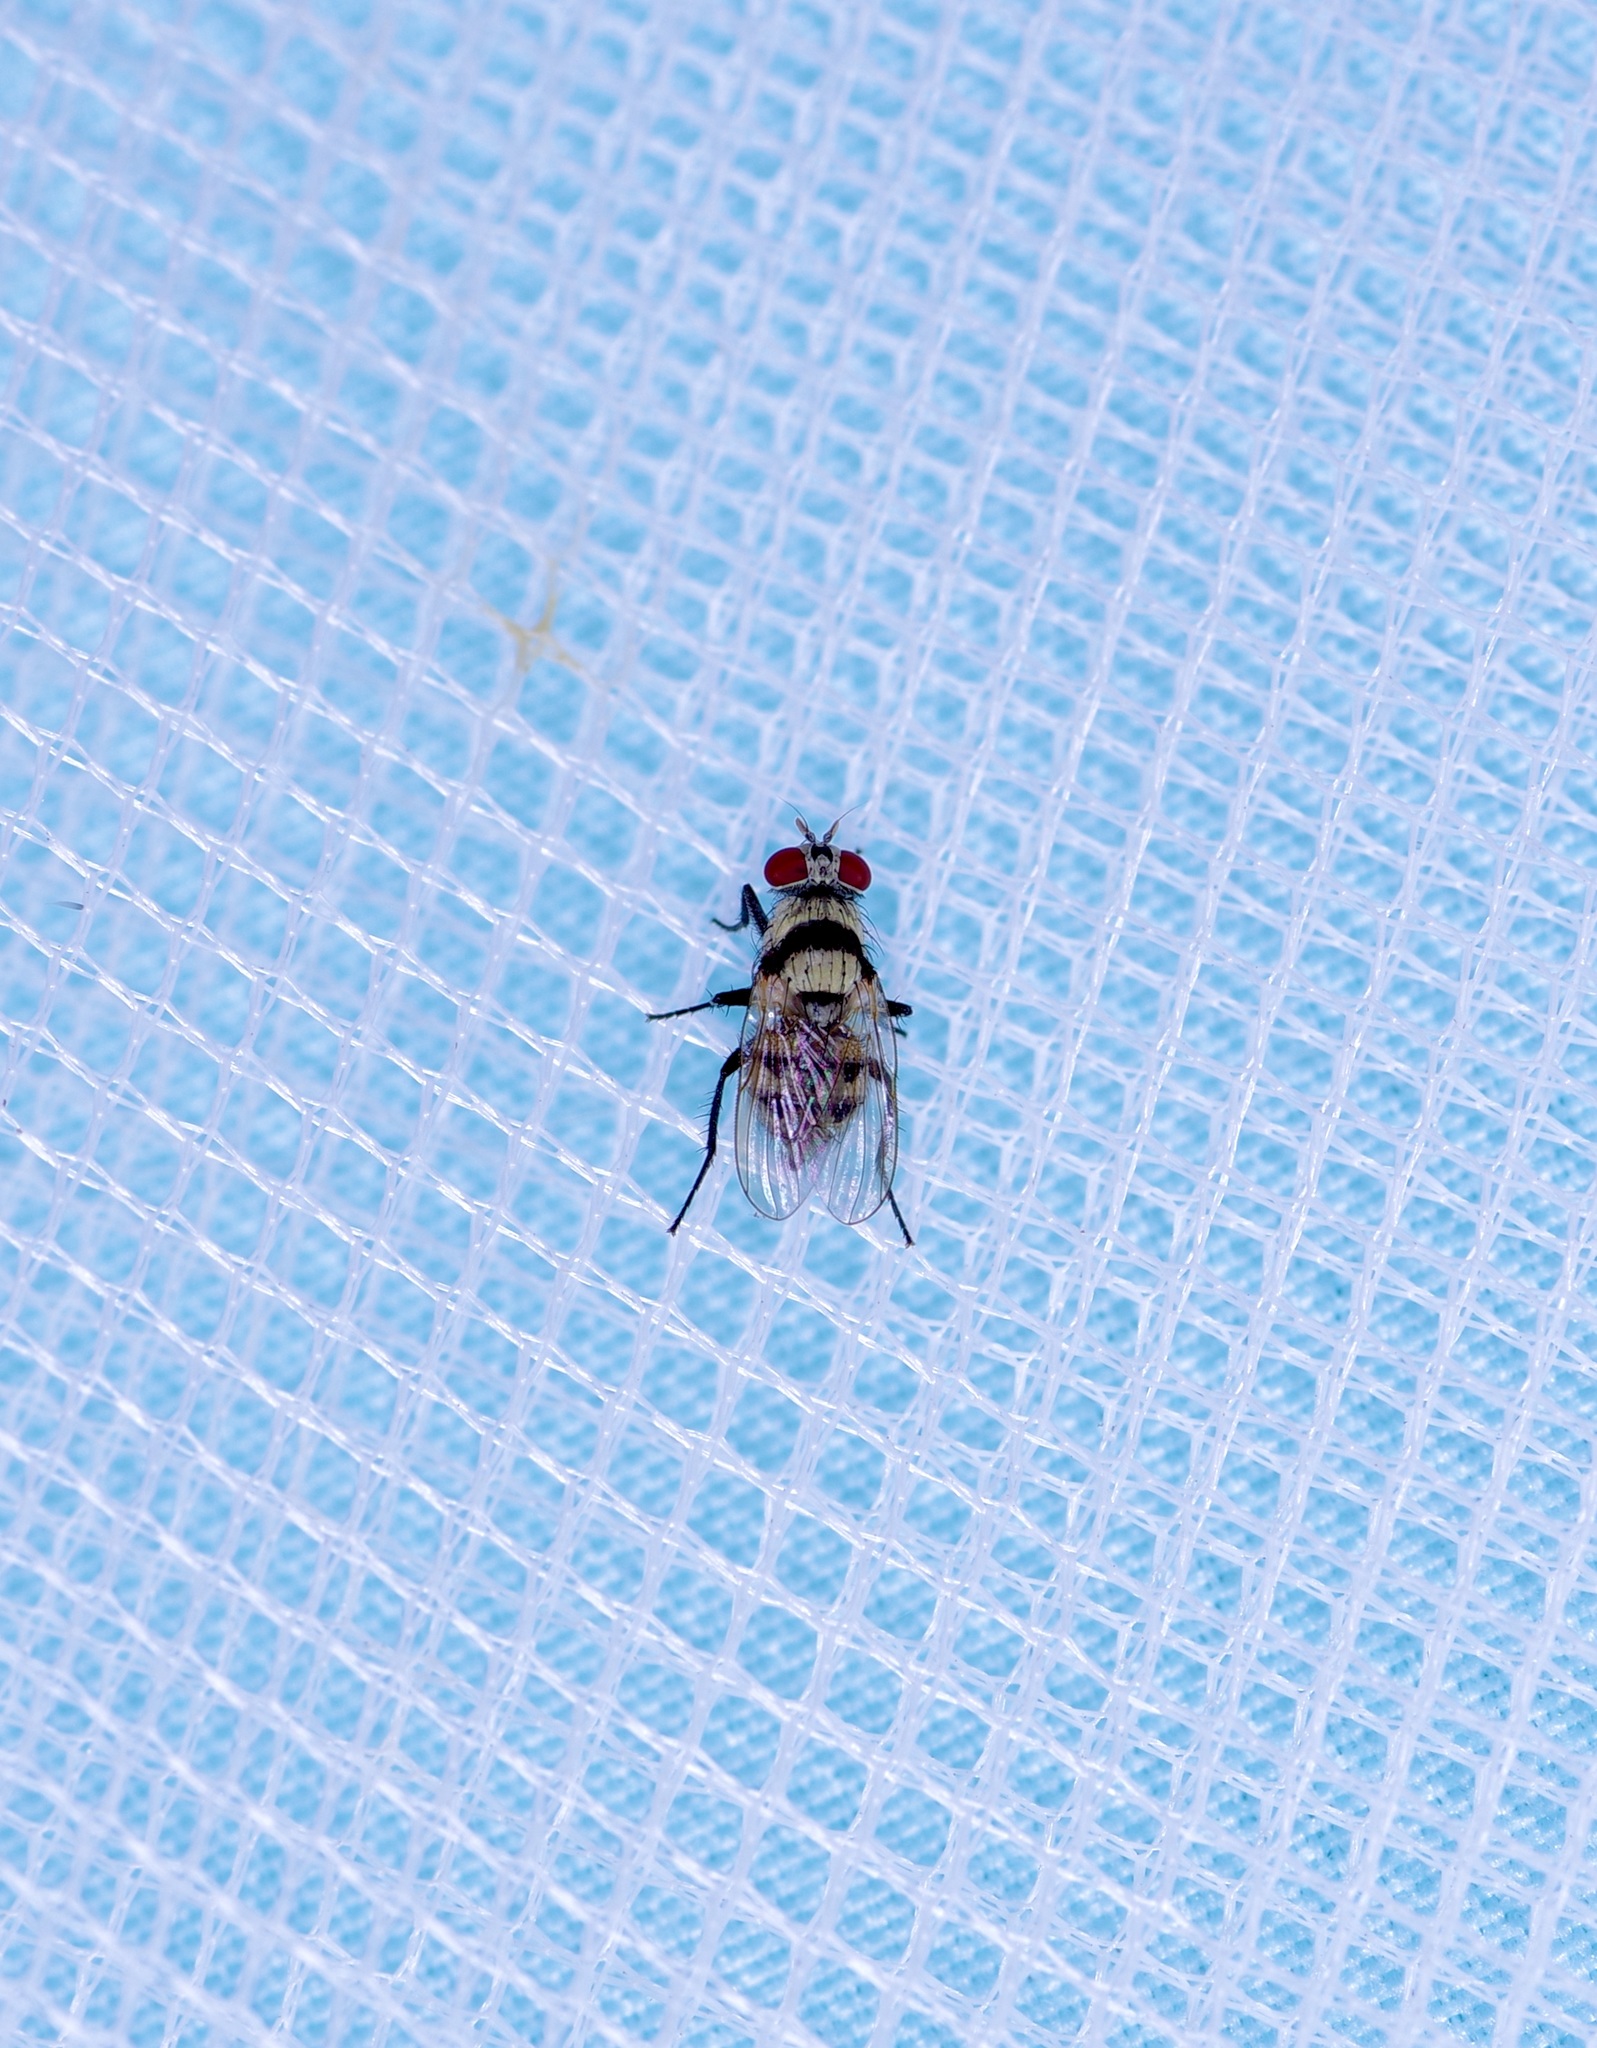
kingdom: Animalia
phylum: Arthropoda
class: Insecta
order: Diptera
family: Anthomyiidae
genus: Anthomyia
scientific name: Anthomyia illocata
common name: Fly
